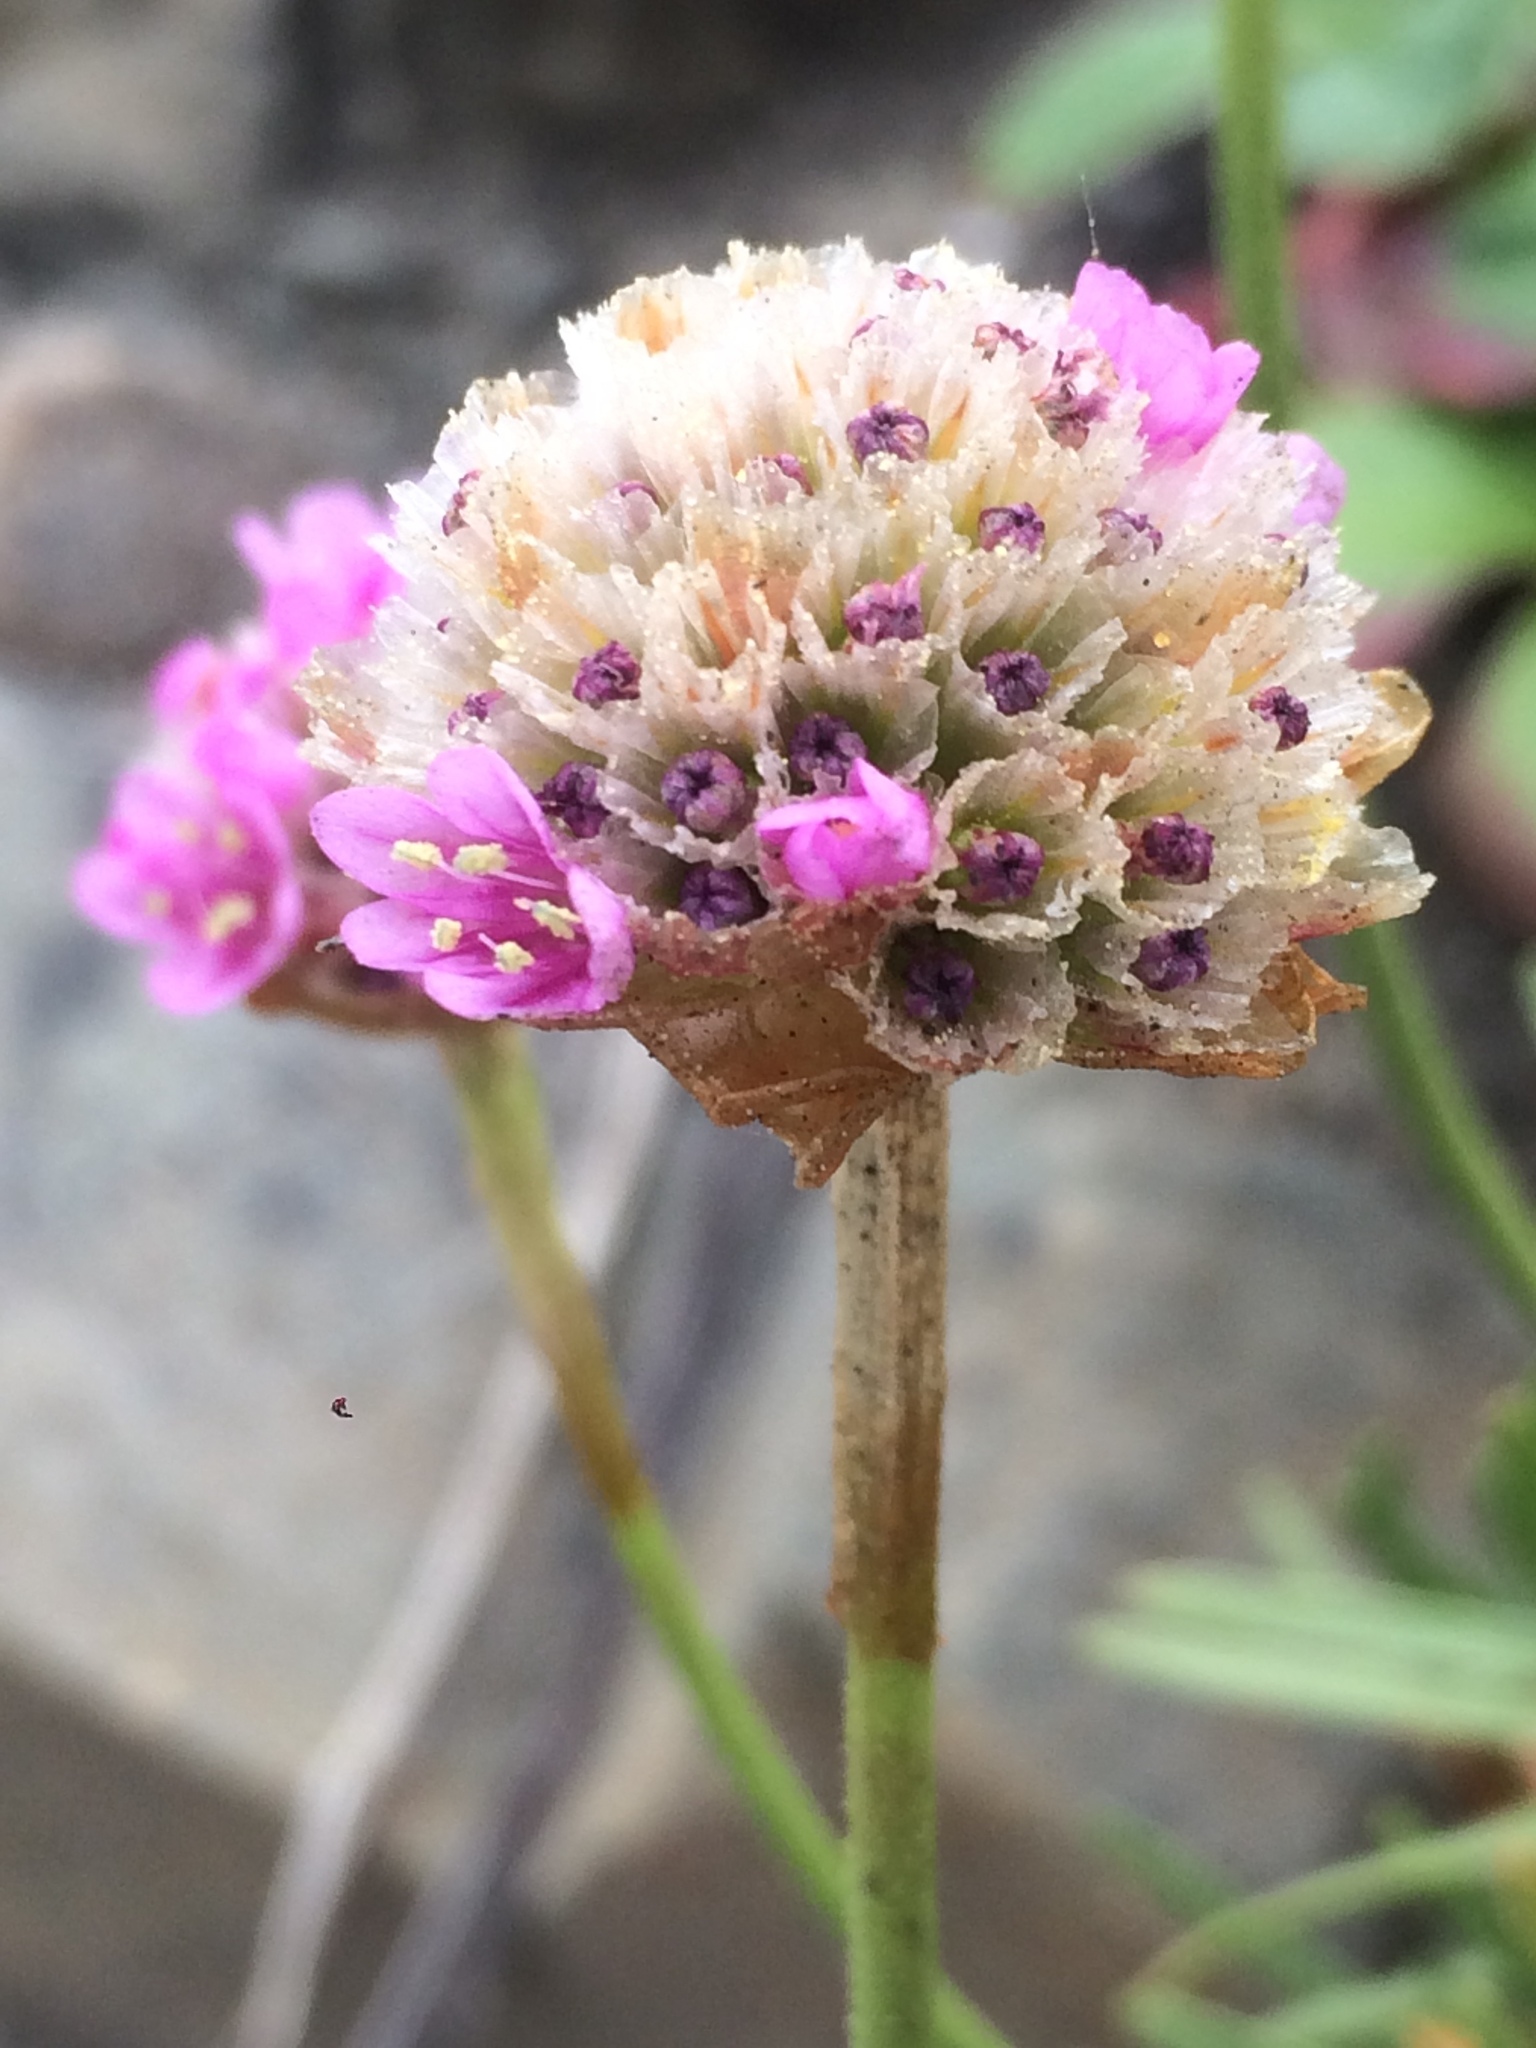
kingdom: Plantae
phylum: Tracheophyta
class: Magnoliopsida
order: Caryophyllales
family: Plumbaginaceae
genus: Armeria
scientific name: Armeria maritima
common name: Thrift
